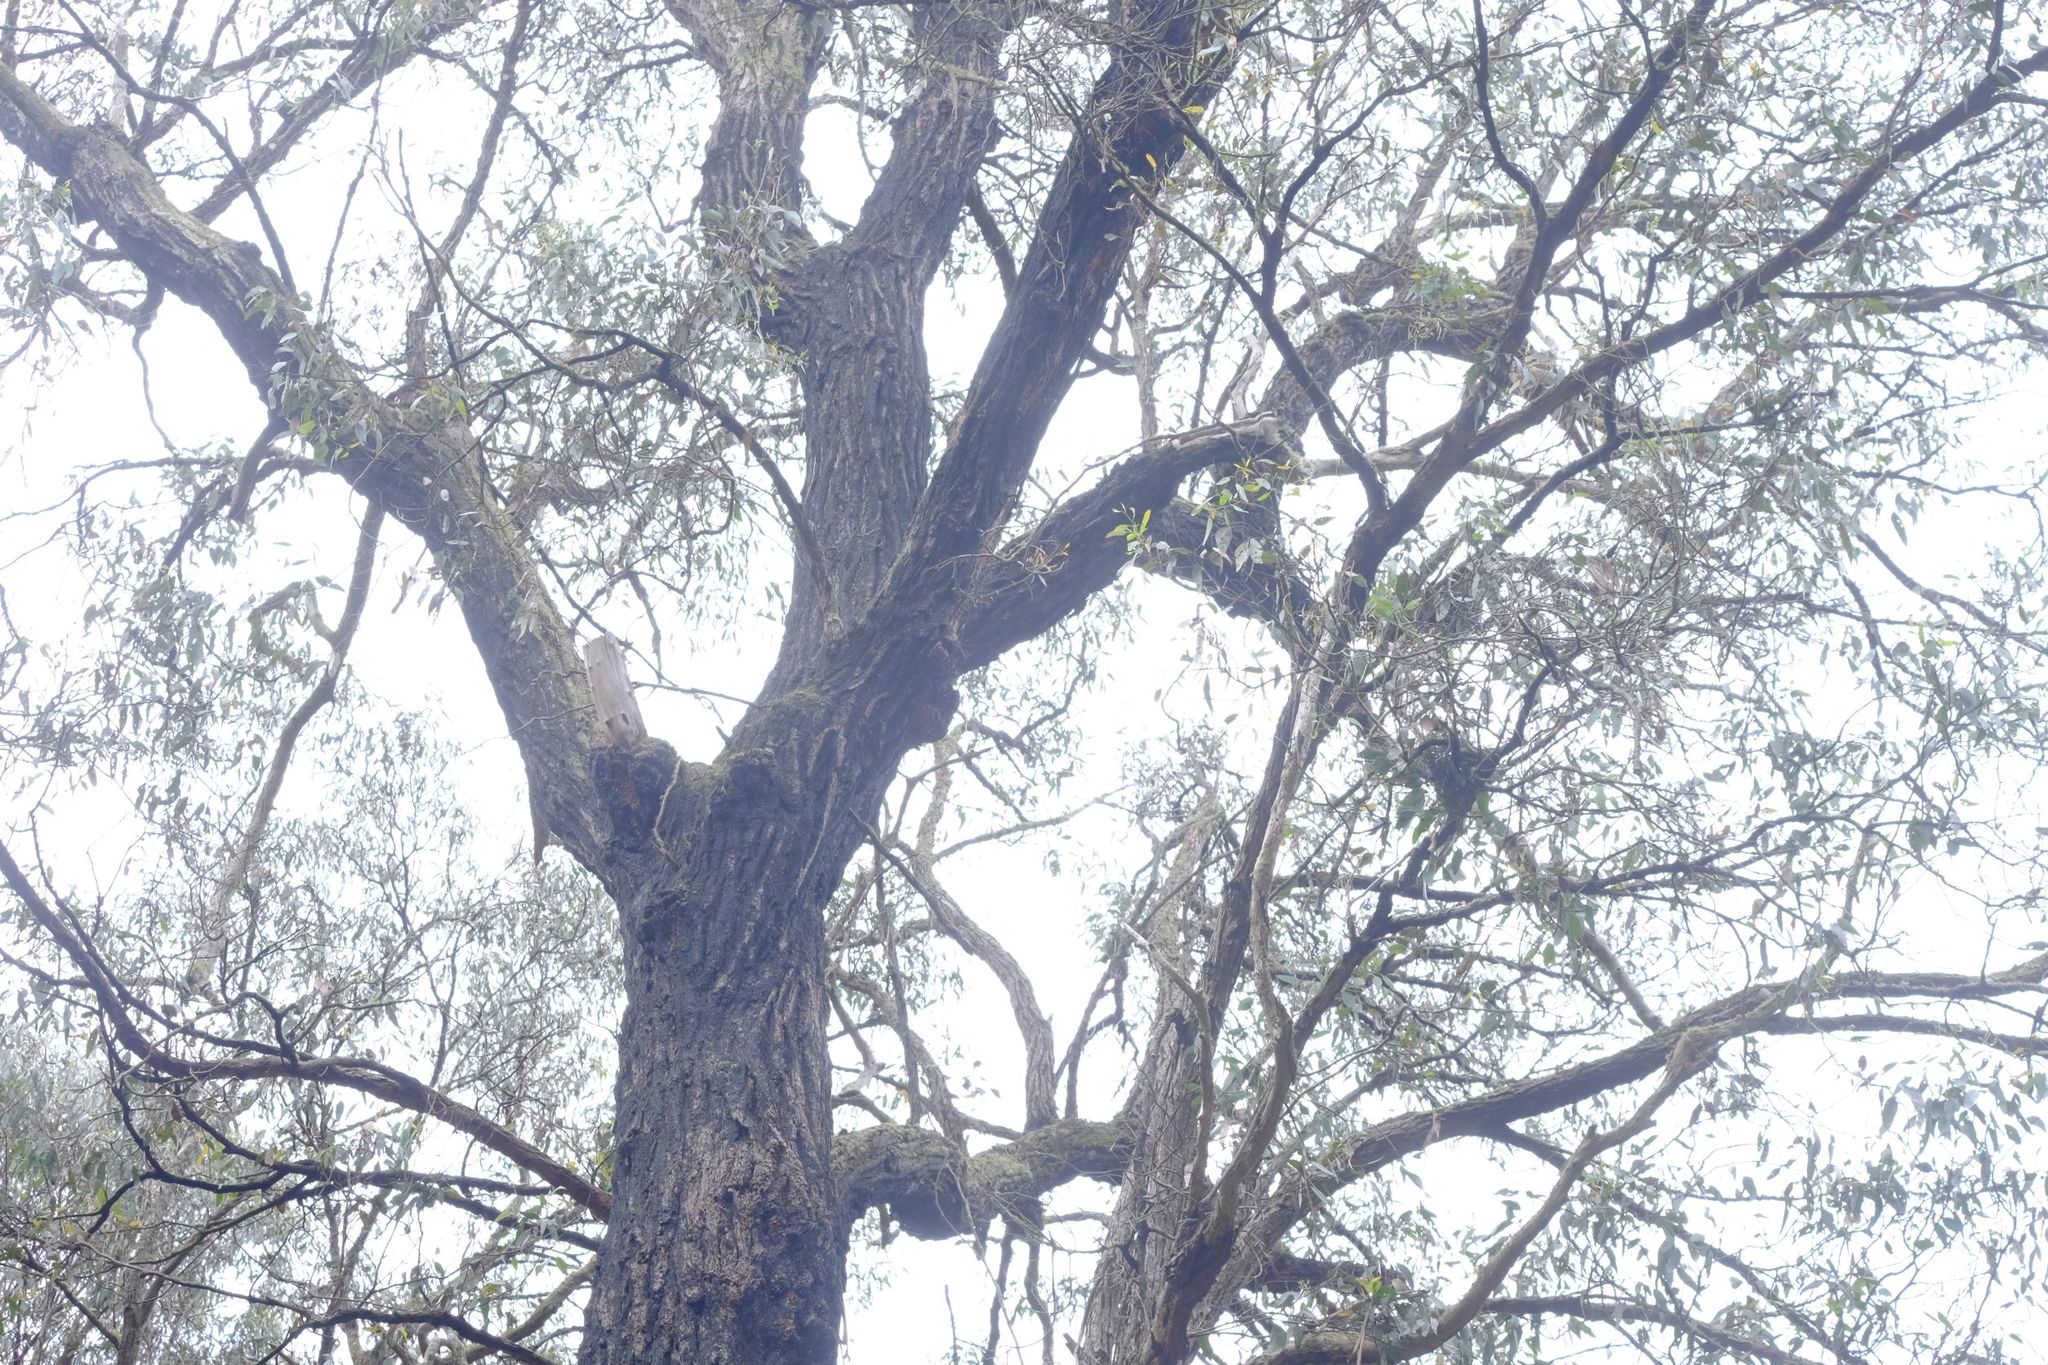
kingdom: Plantae
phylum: Tracheophyta
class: Magnoliopsida
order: Myrtales
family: Myrtaceae
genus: Eucalyptus
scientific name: Eucalyptus tricarpa
